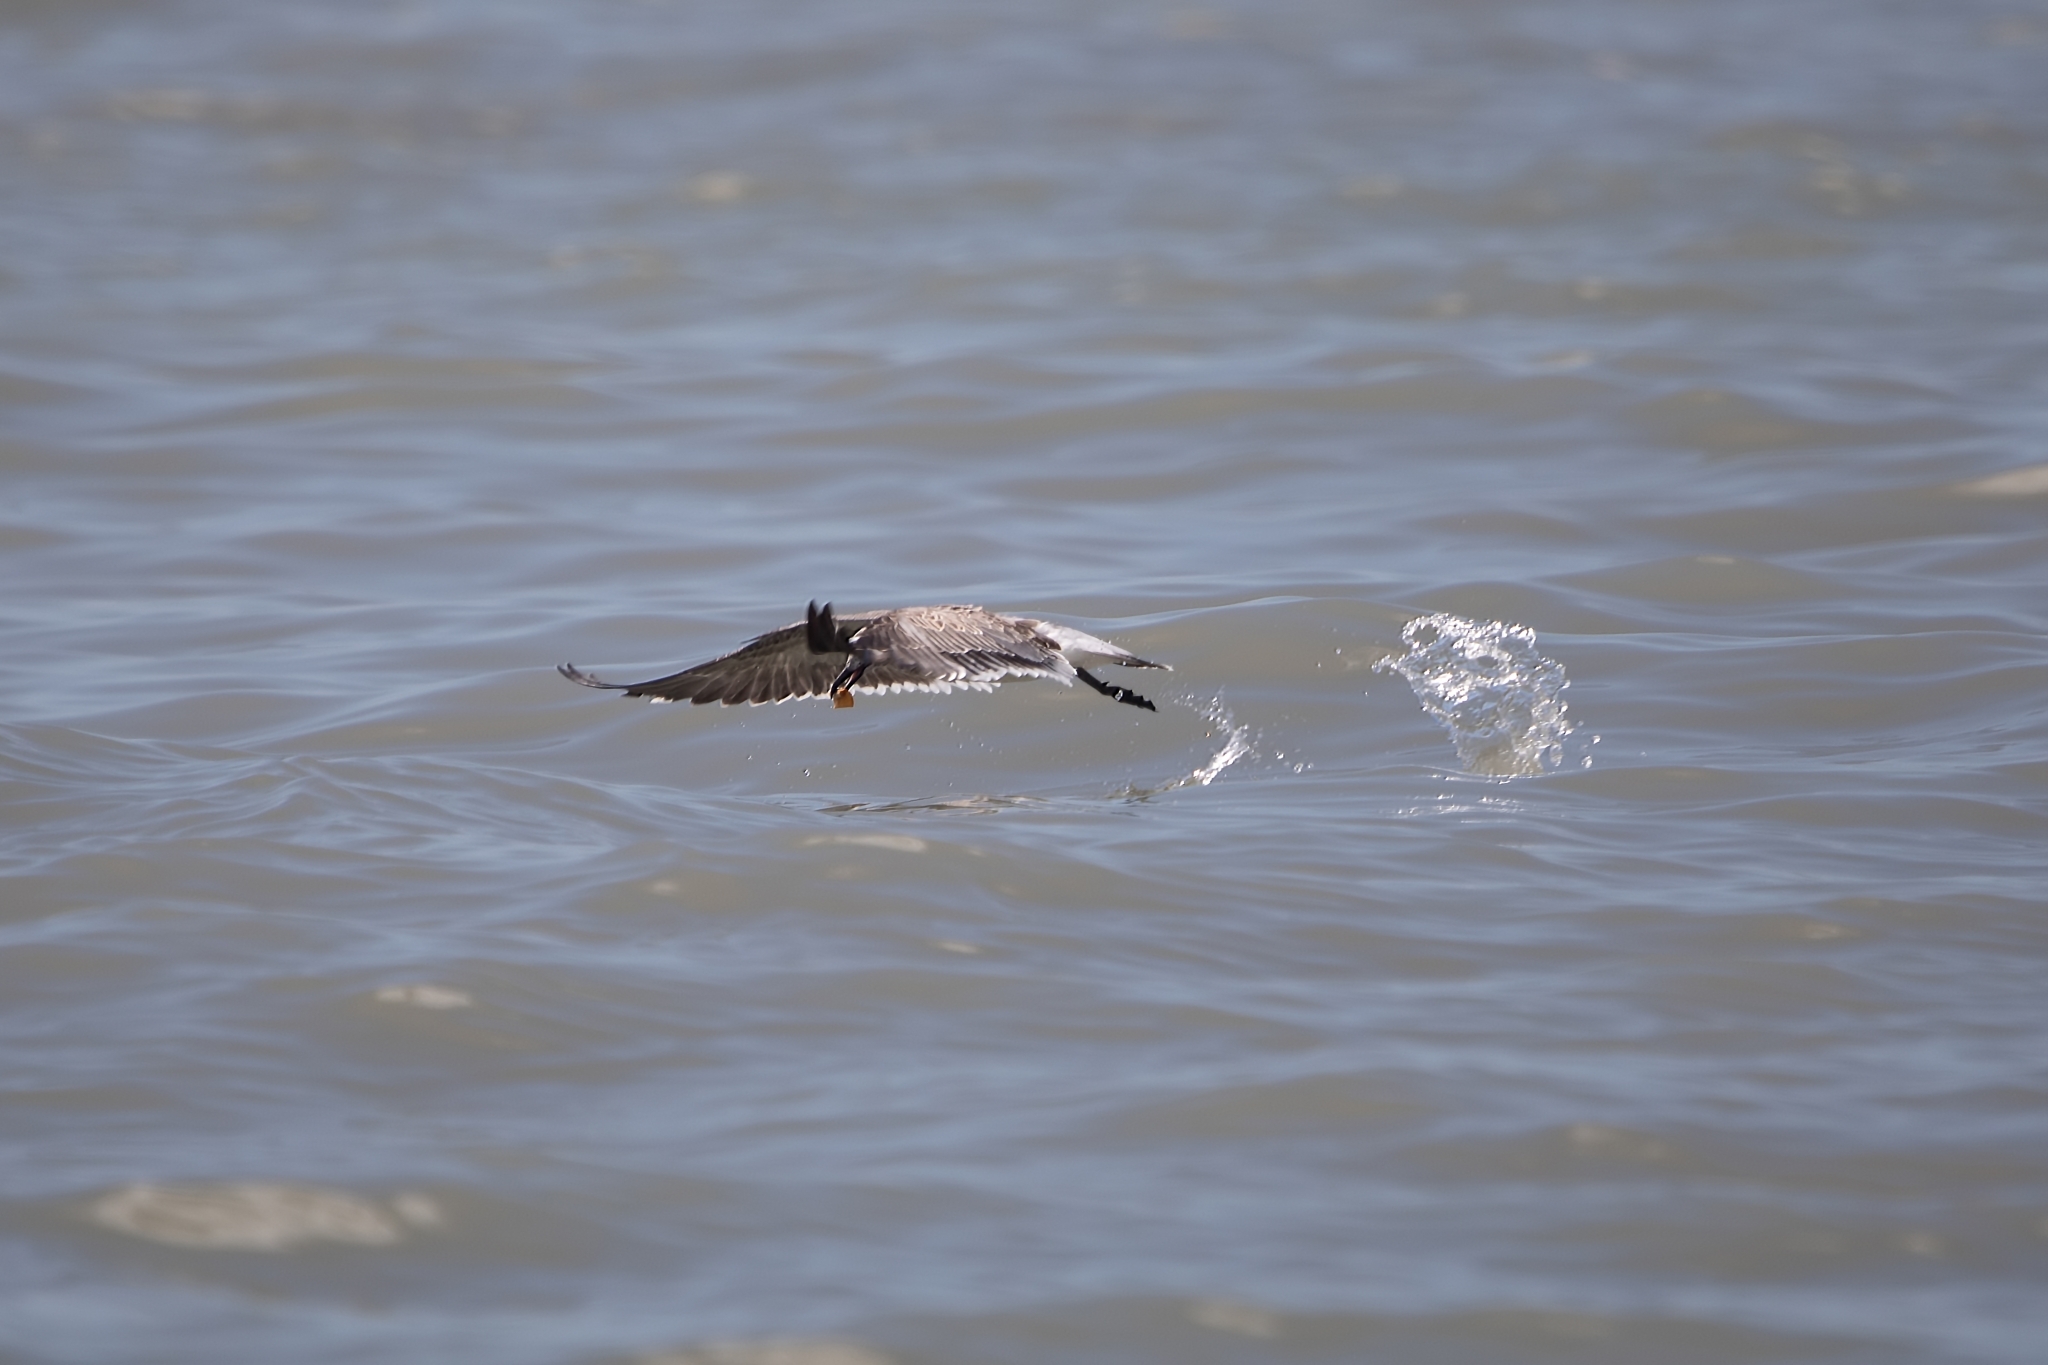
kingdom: Animalia
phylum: Chordata
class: Aves
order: Charadriiformes
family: Laridae
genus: Leucophaeus
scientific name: Leucophaeus atricilla
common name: Laughing gull
